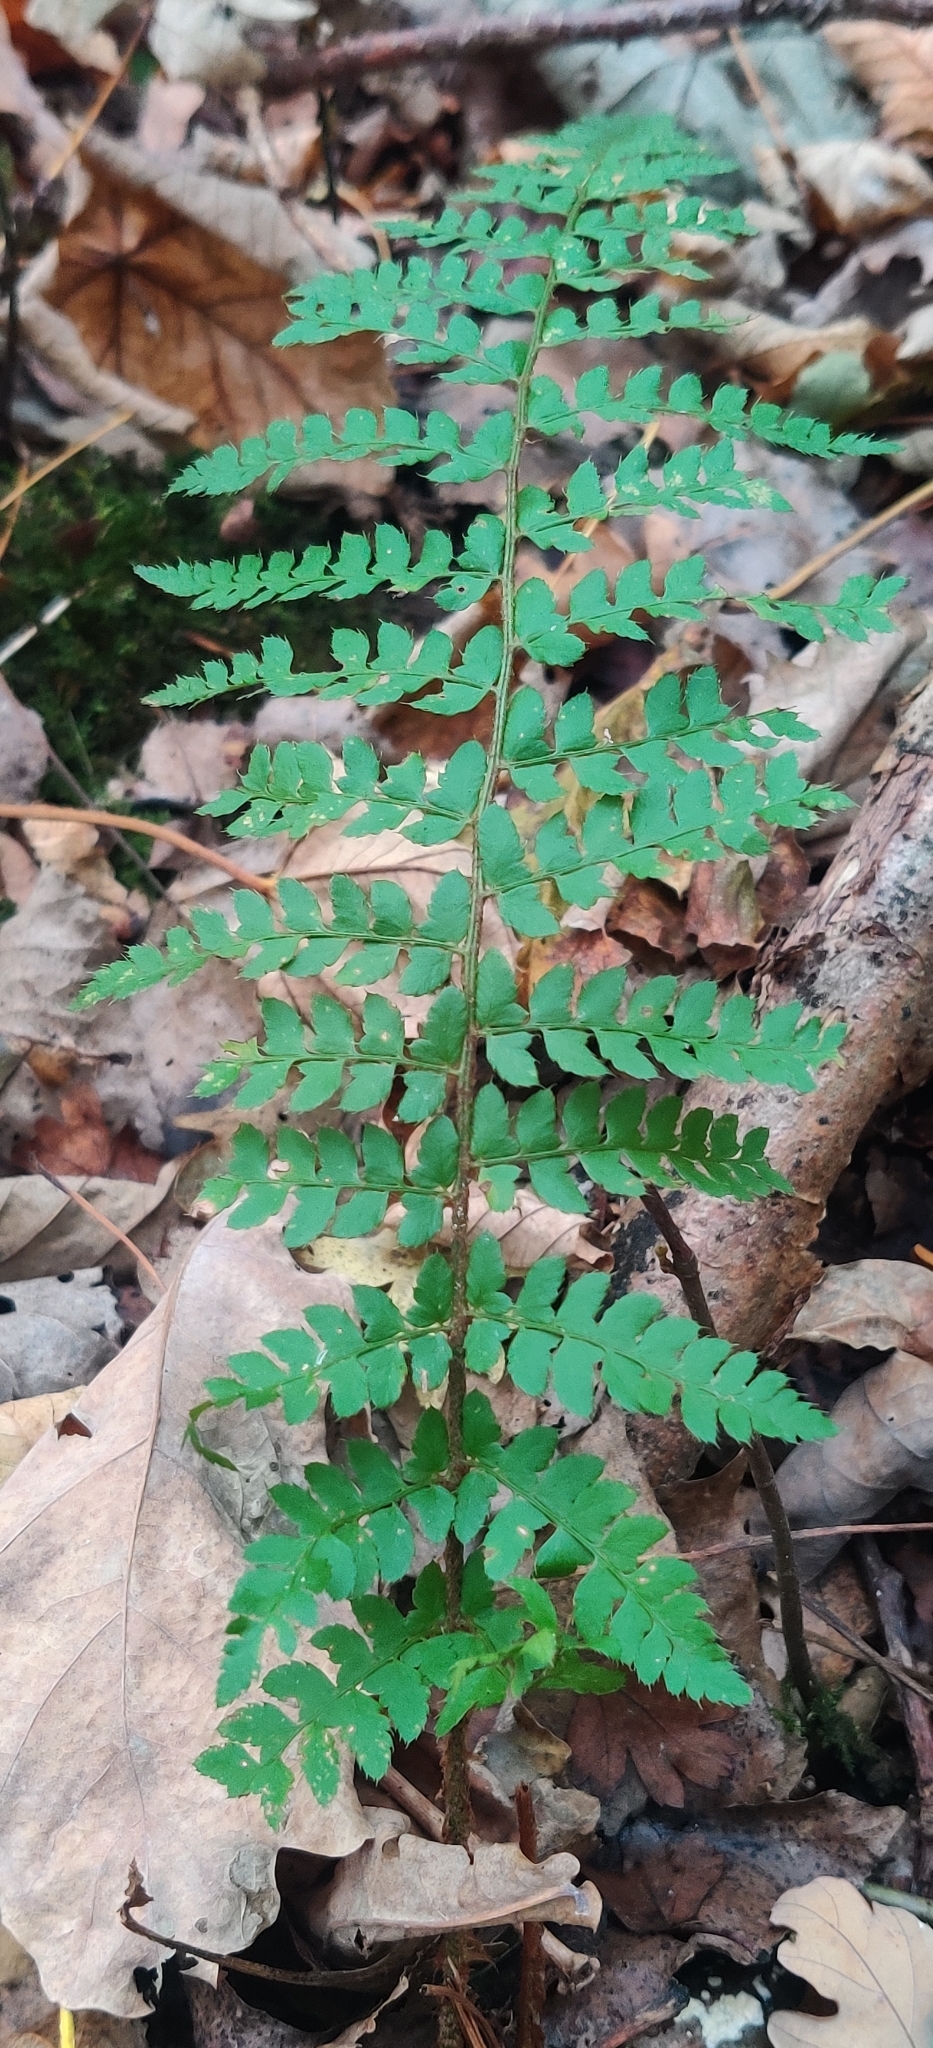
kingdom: Plantae
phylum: Tracheophyta
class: Polypodiopsida
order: Polypodiales
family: Dryopteridaceae
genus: Polystichum
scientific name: Polystichum setiferum
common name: Soft shield-fern
